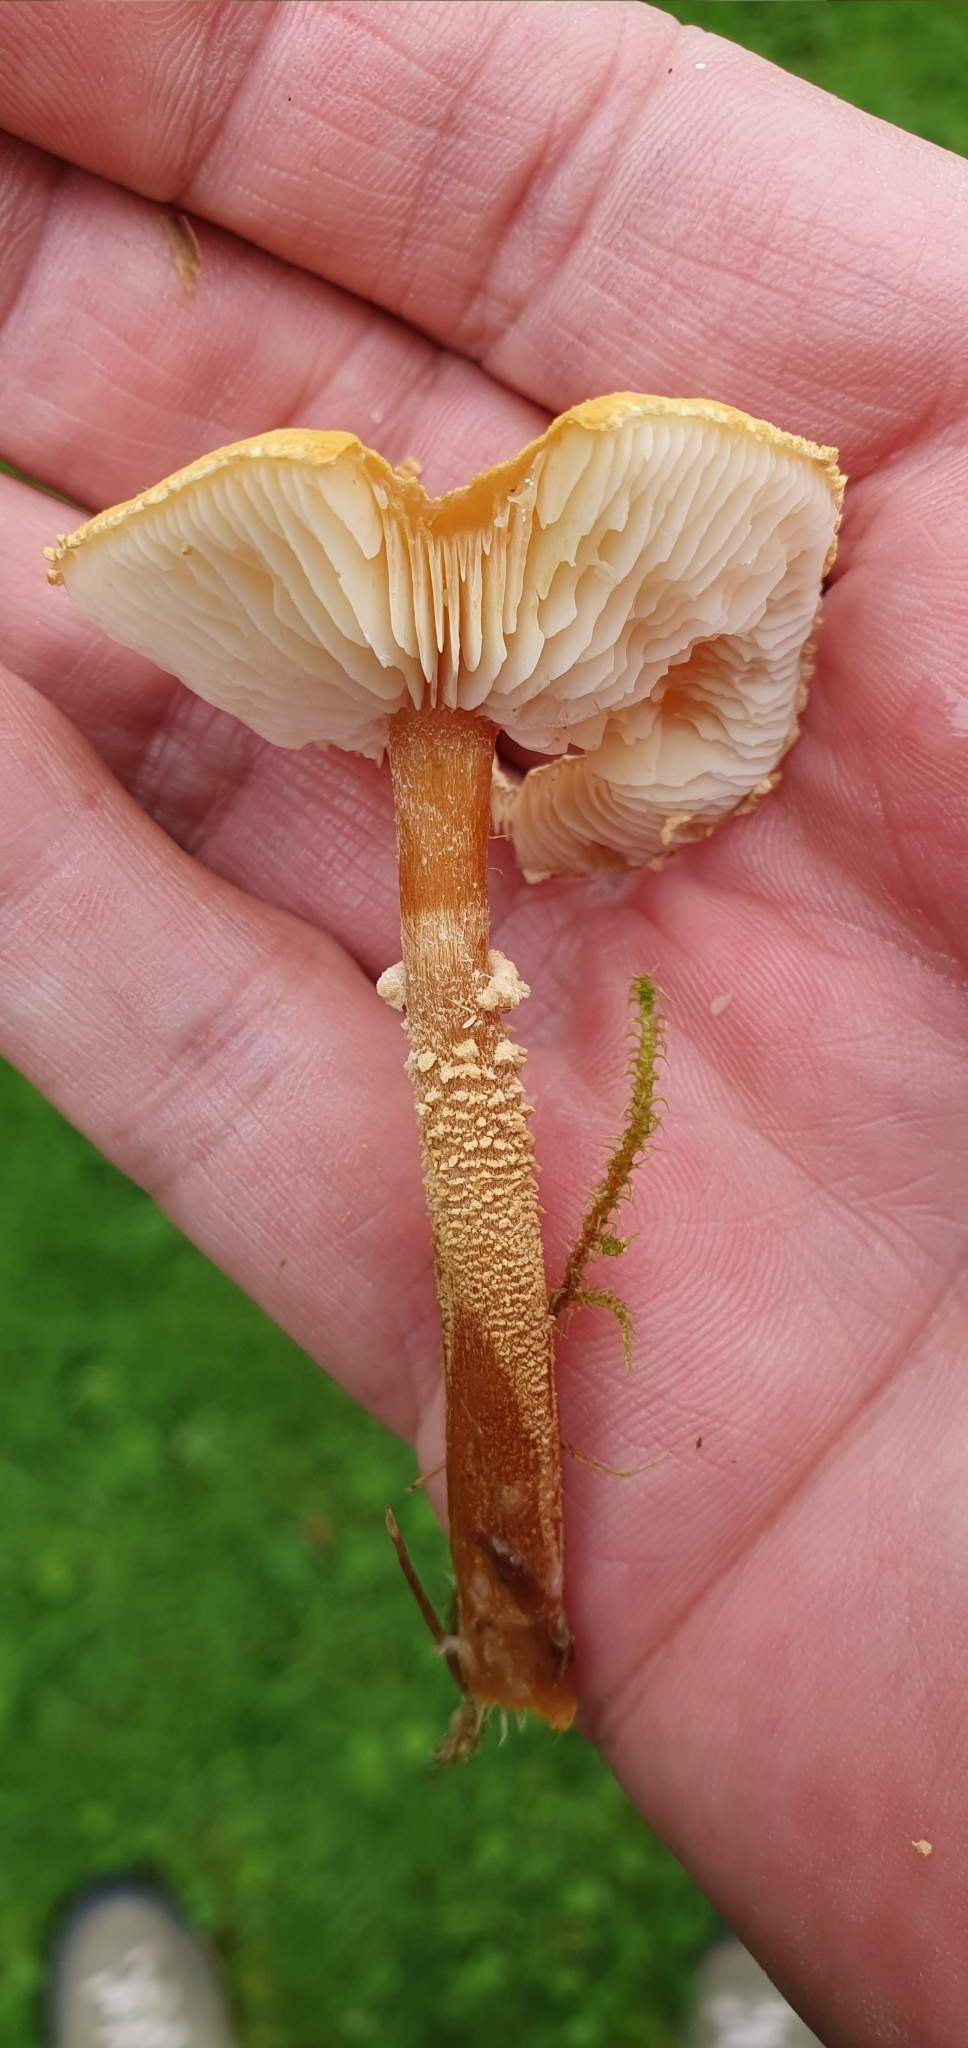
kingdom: Fungi
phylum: Basidiomycota
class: Agaricomycetes
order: Agaricales
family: Tricholomataceae
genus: Cystoderma
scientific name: Cystoderma amianthinum
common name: Earthy powdercap
